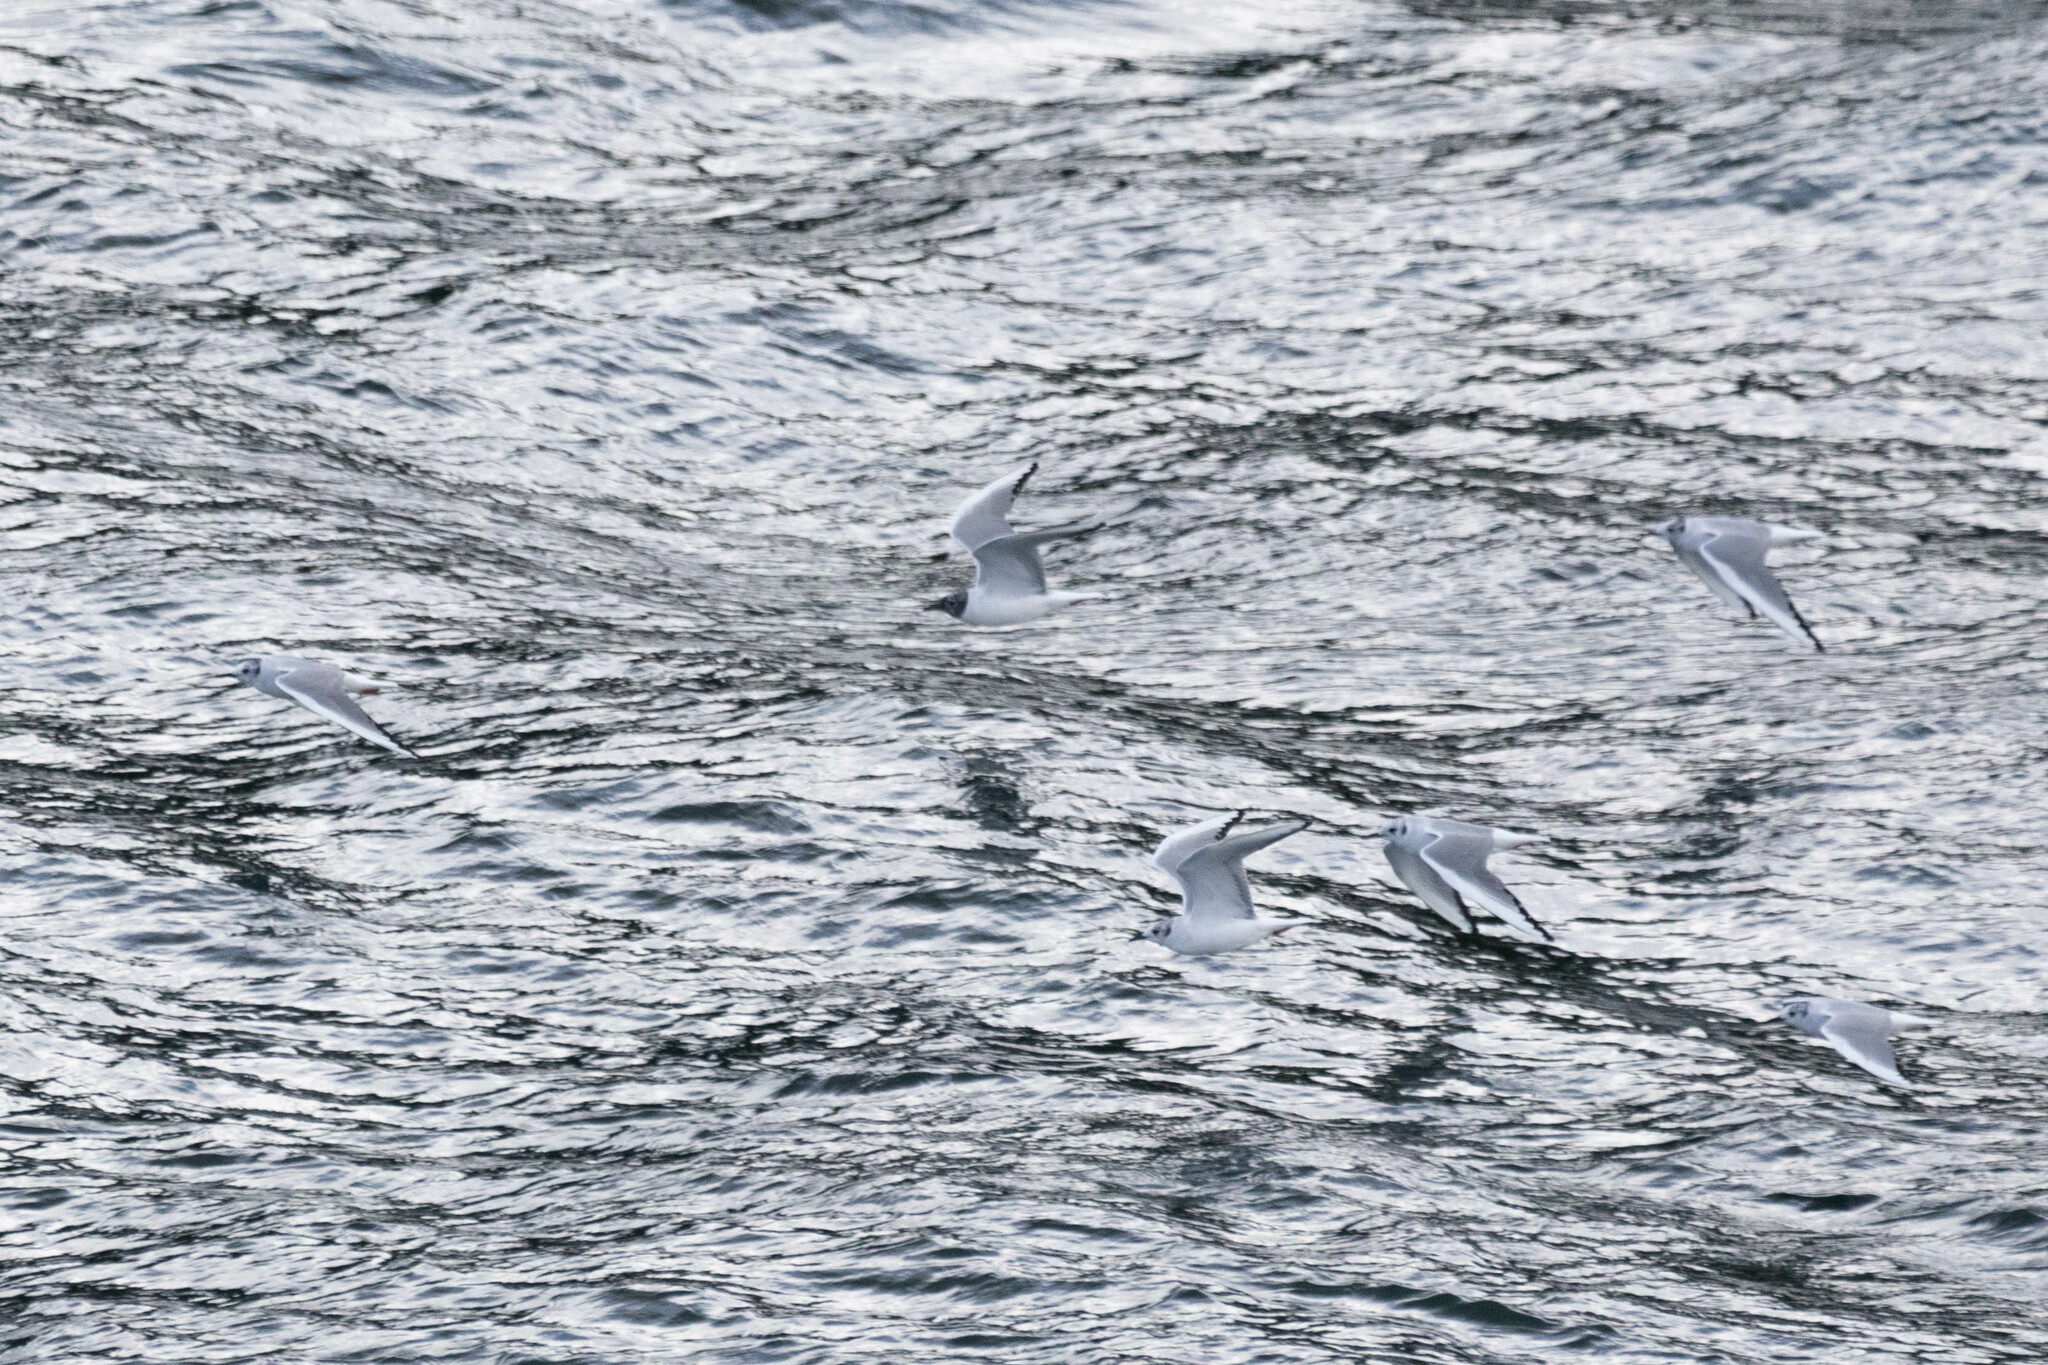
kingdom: Animalia
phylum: Chordata
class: Aves
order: Charadriiformes
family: Laridae
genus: Chroicocephalus
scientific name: Chroicocephalus philadelphia
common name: Bonaparte's gull
